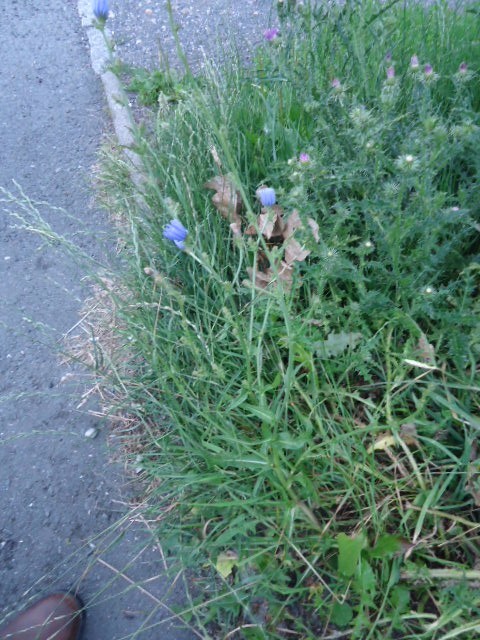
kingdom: Plantae
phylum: Tracheophyta
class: Magnoliopsida
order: Asterales
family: Asteraceae
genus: Cichorium
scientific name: Cichorium intybus
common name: Chicory
